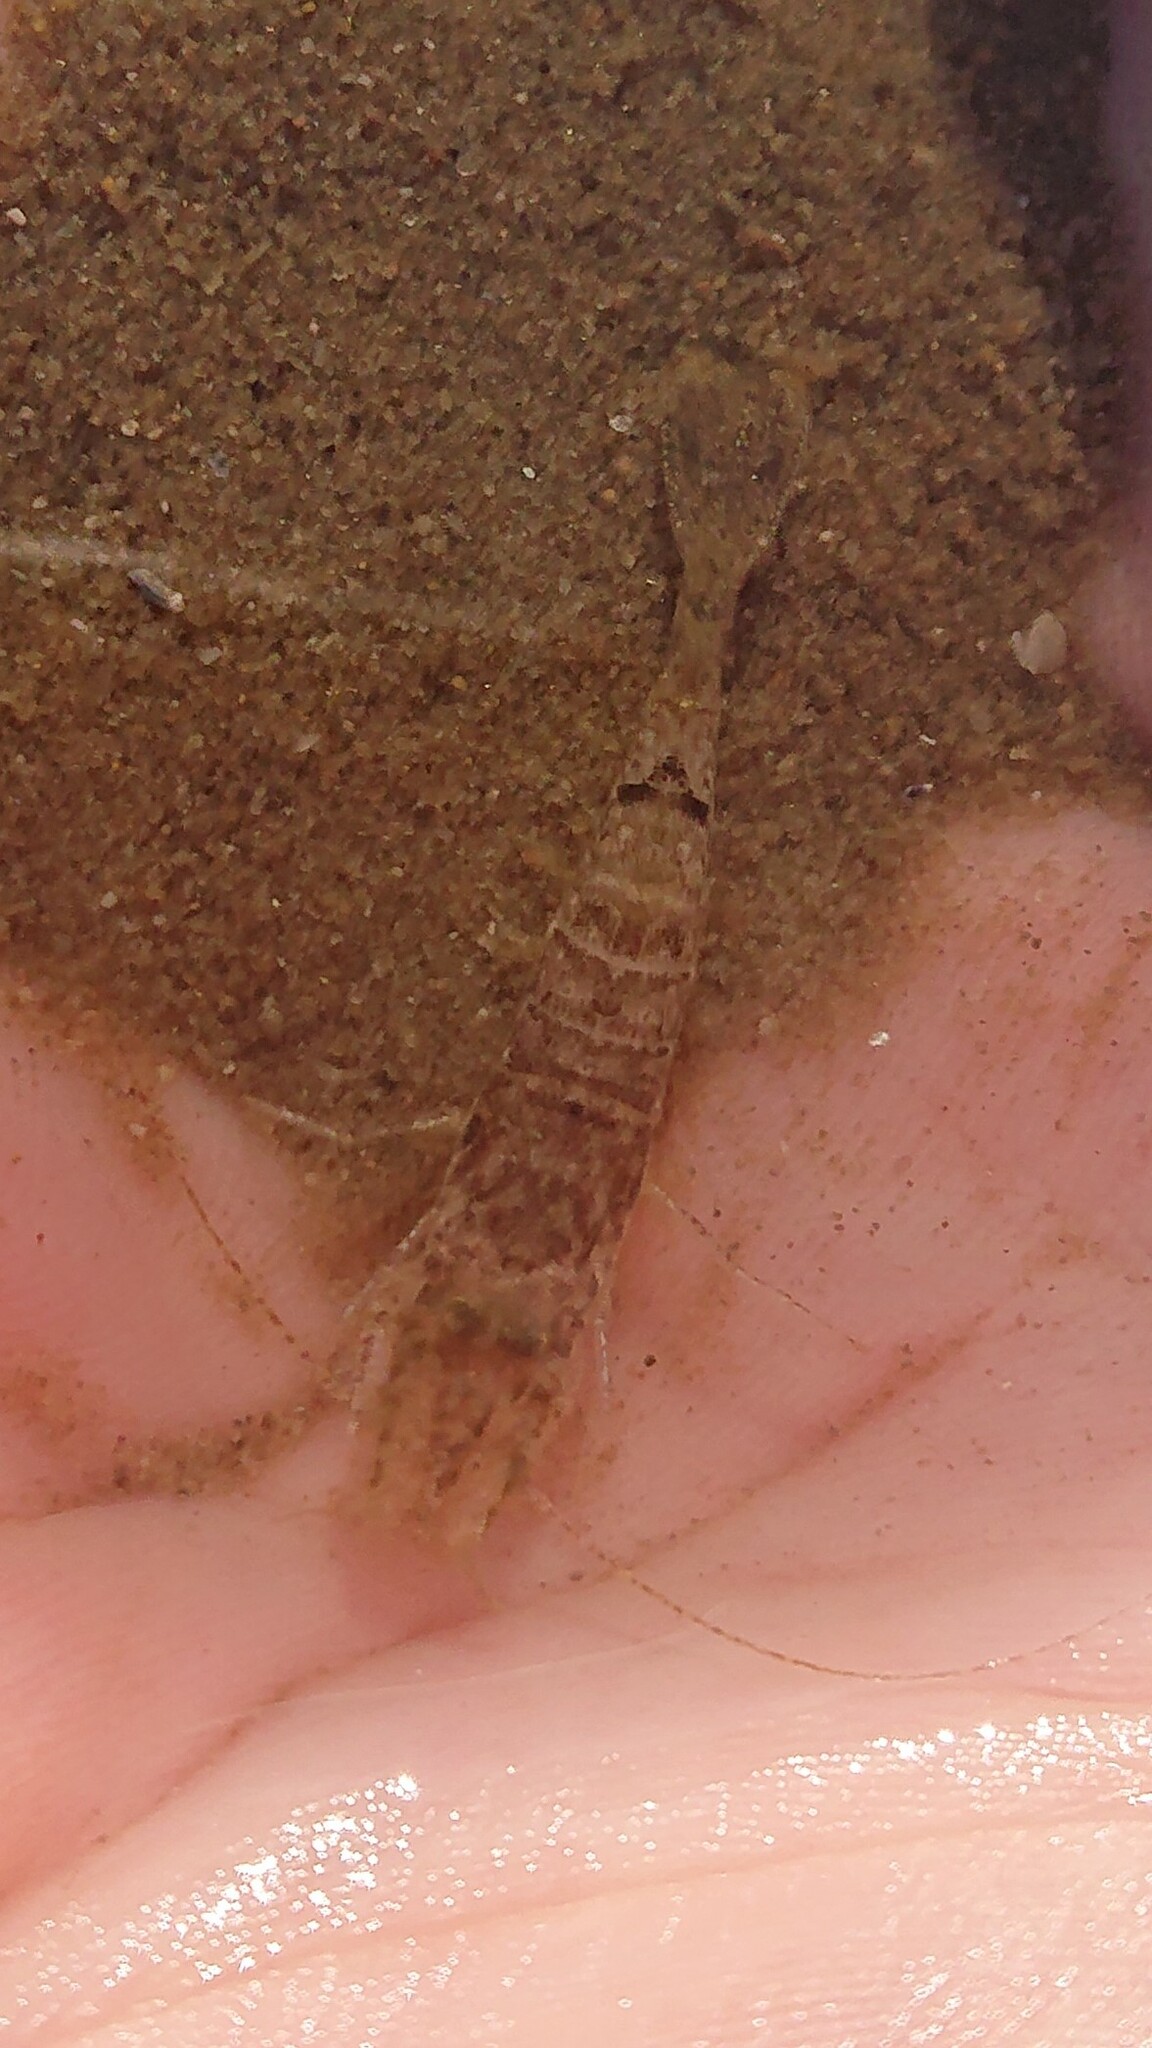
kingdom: Animalia
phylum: Arthropoda
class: Malacostraca
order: Decapoda
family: Crangonidae
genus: Crangon
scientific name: Crangon crangon
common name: Brown shrimp
